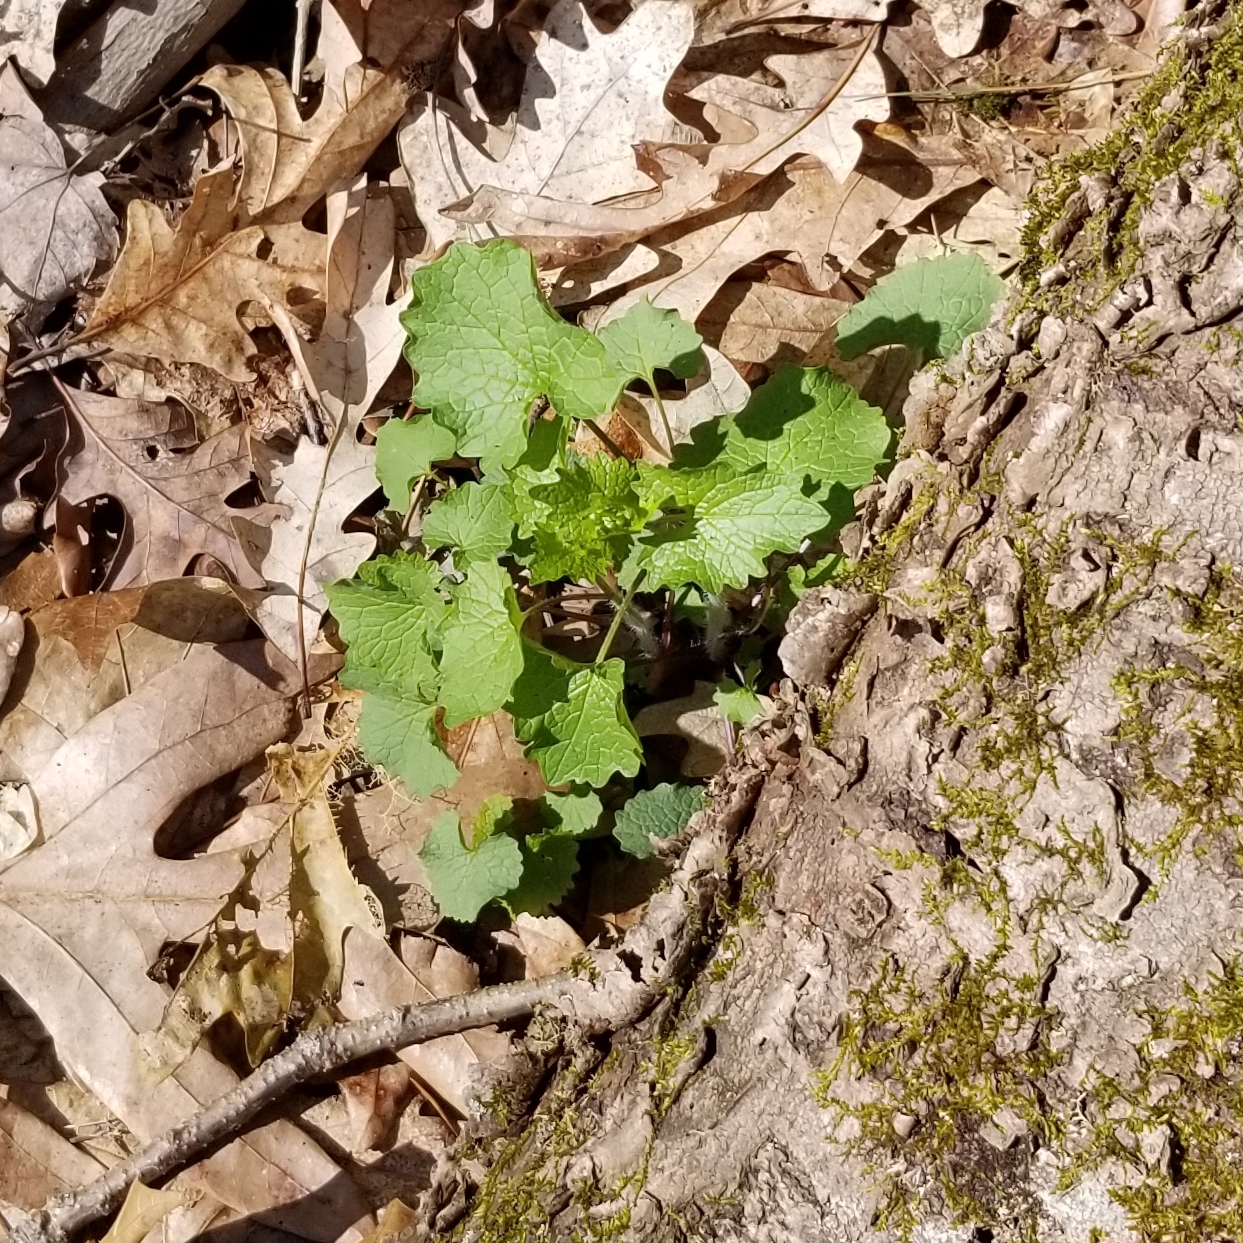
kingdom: Plantae
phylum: Tracheophyta
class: Magnoliopsida
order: Brassicales
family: Brassicaceae
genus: Alliaria
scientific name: Alliaria petiolata
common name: Garlic mustard
